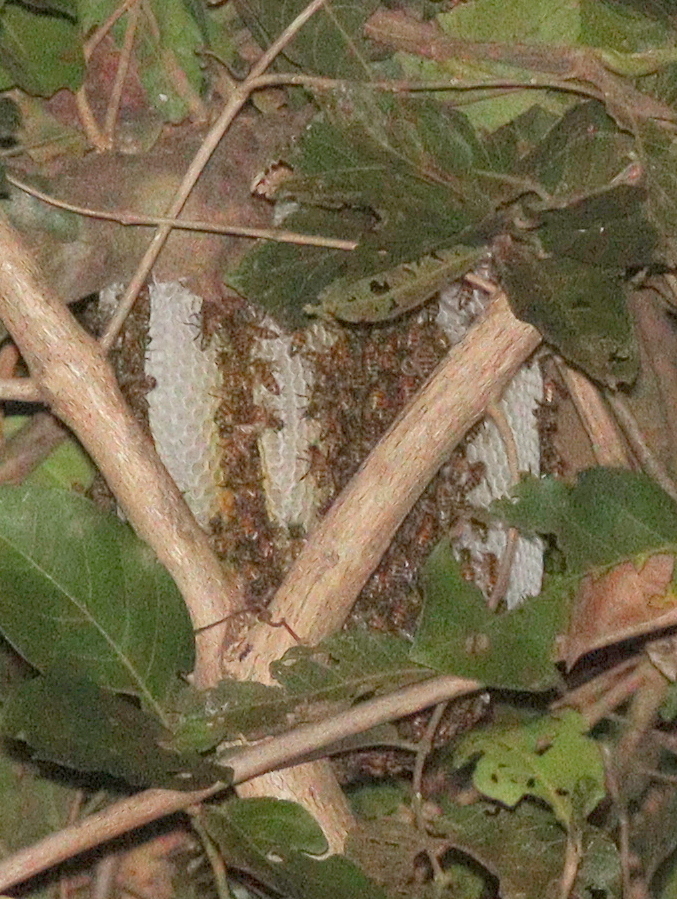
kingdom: Animalia
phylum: Arthropoda
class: Insecta
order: Hymenoptera
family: Apidae
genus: Apis
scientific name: Apis mellifera
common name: Honey bee
